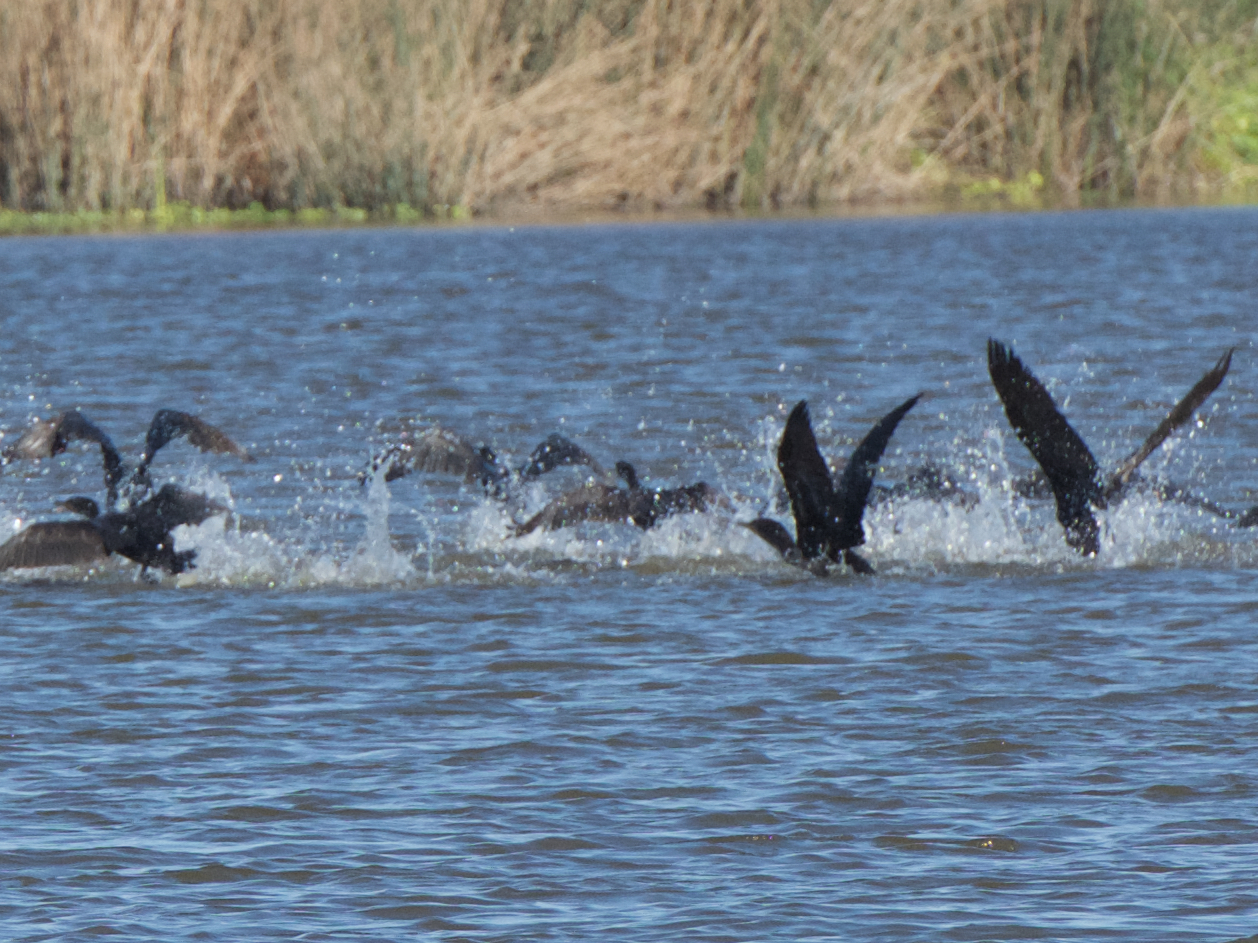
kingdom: Animalia
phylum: Chordata
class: Aves
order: Suliformes
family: Phalacrocoracidae
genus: Phalacrocorax
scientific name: Phalacrocorax auritus
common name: Double-crested cormorant
